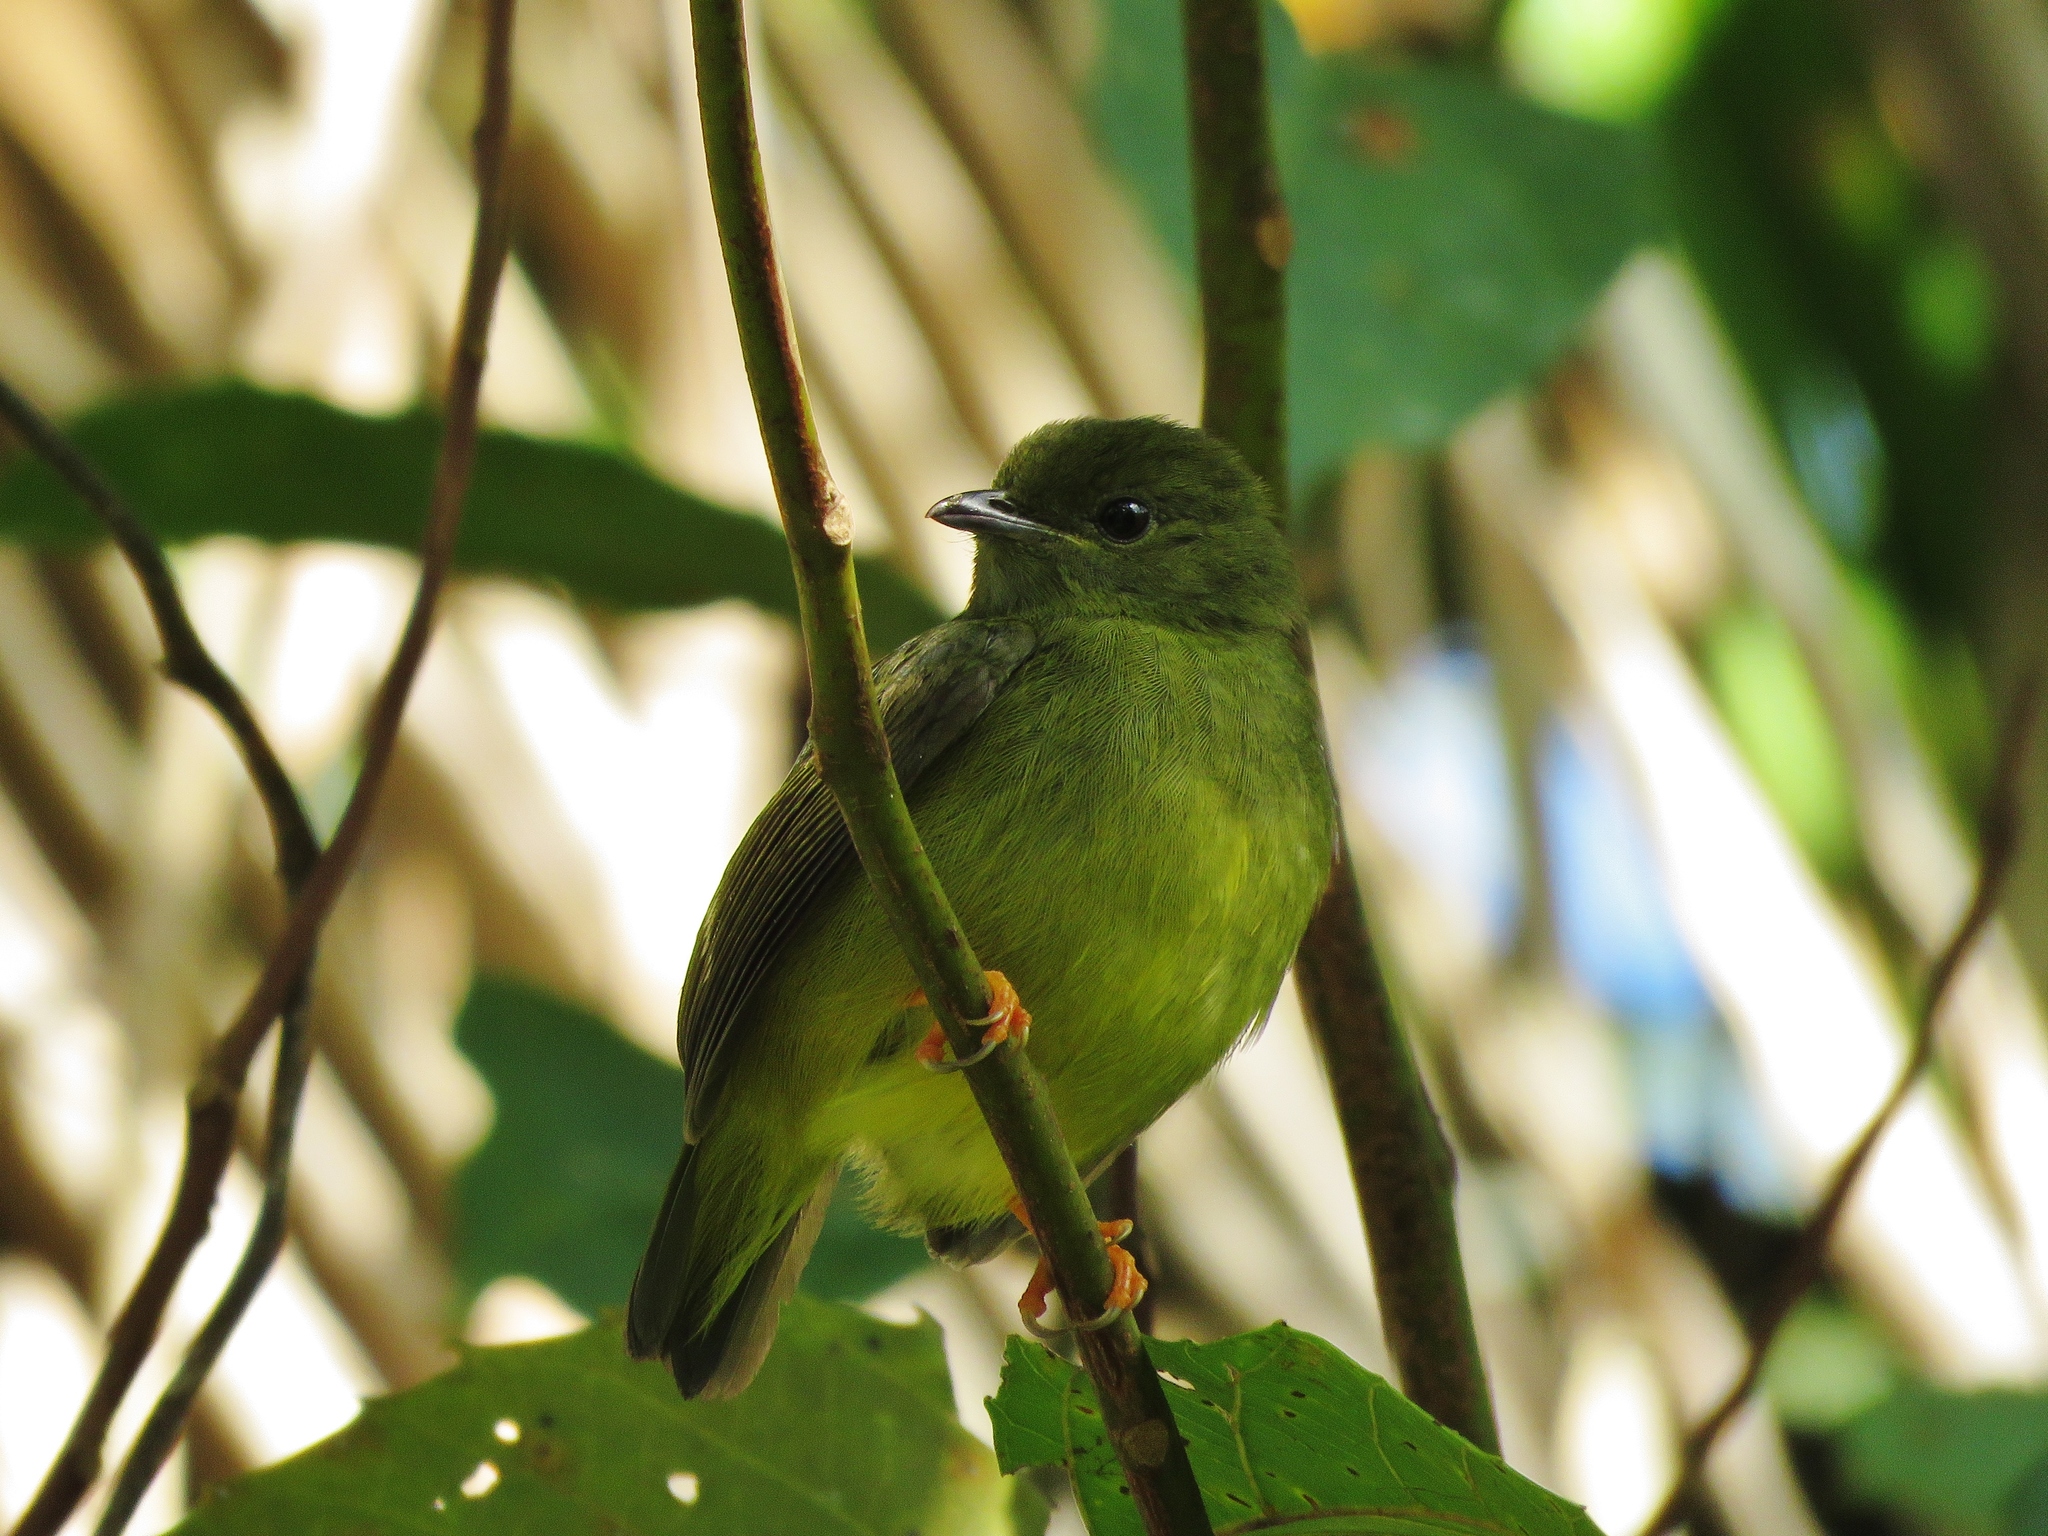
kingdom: Animalia
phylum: Chordata
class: Aves
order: Passeriformes
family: Pipridae
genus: Manacus
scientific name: Manacus candei
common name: White-collared manakin
